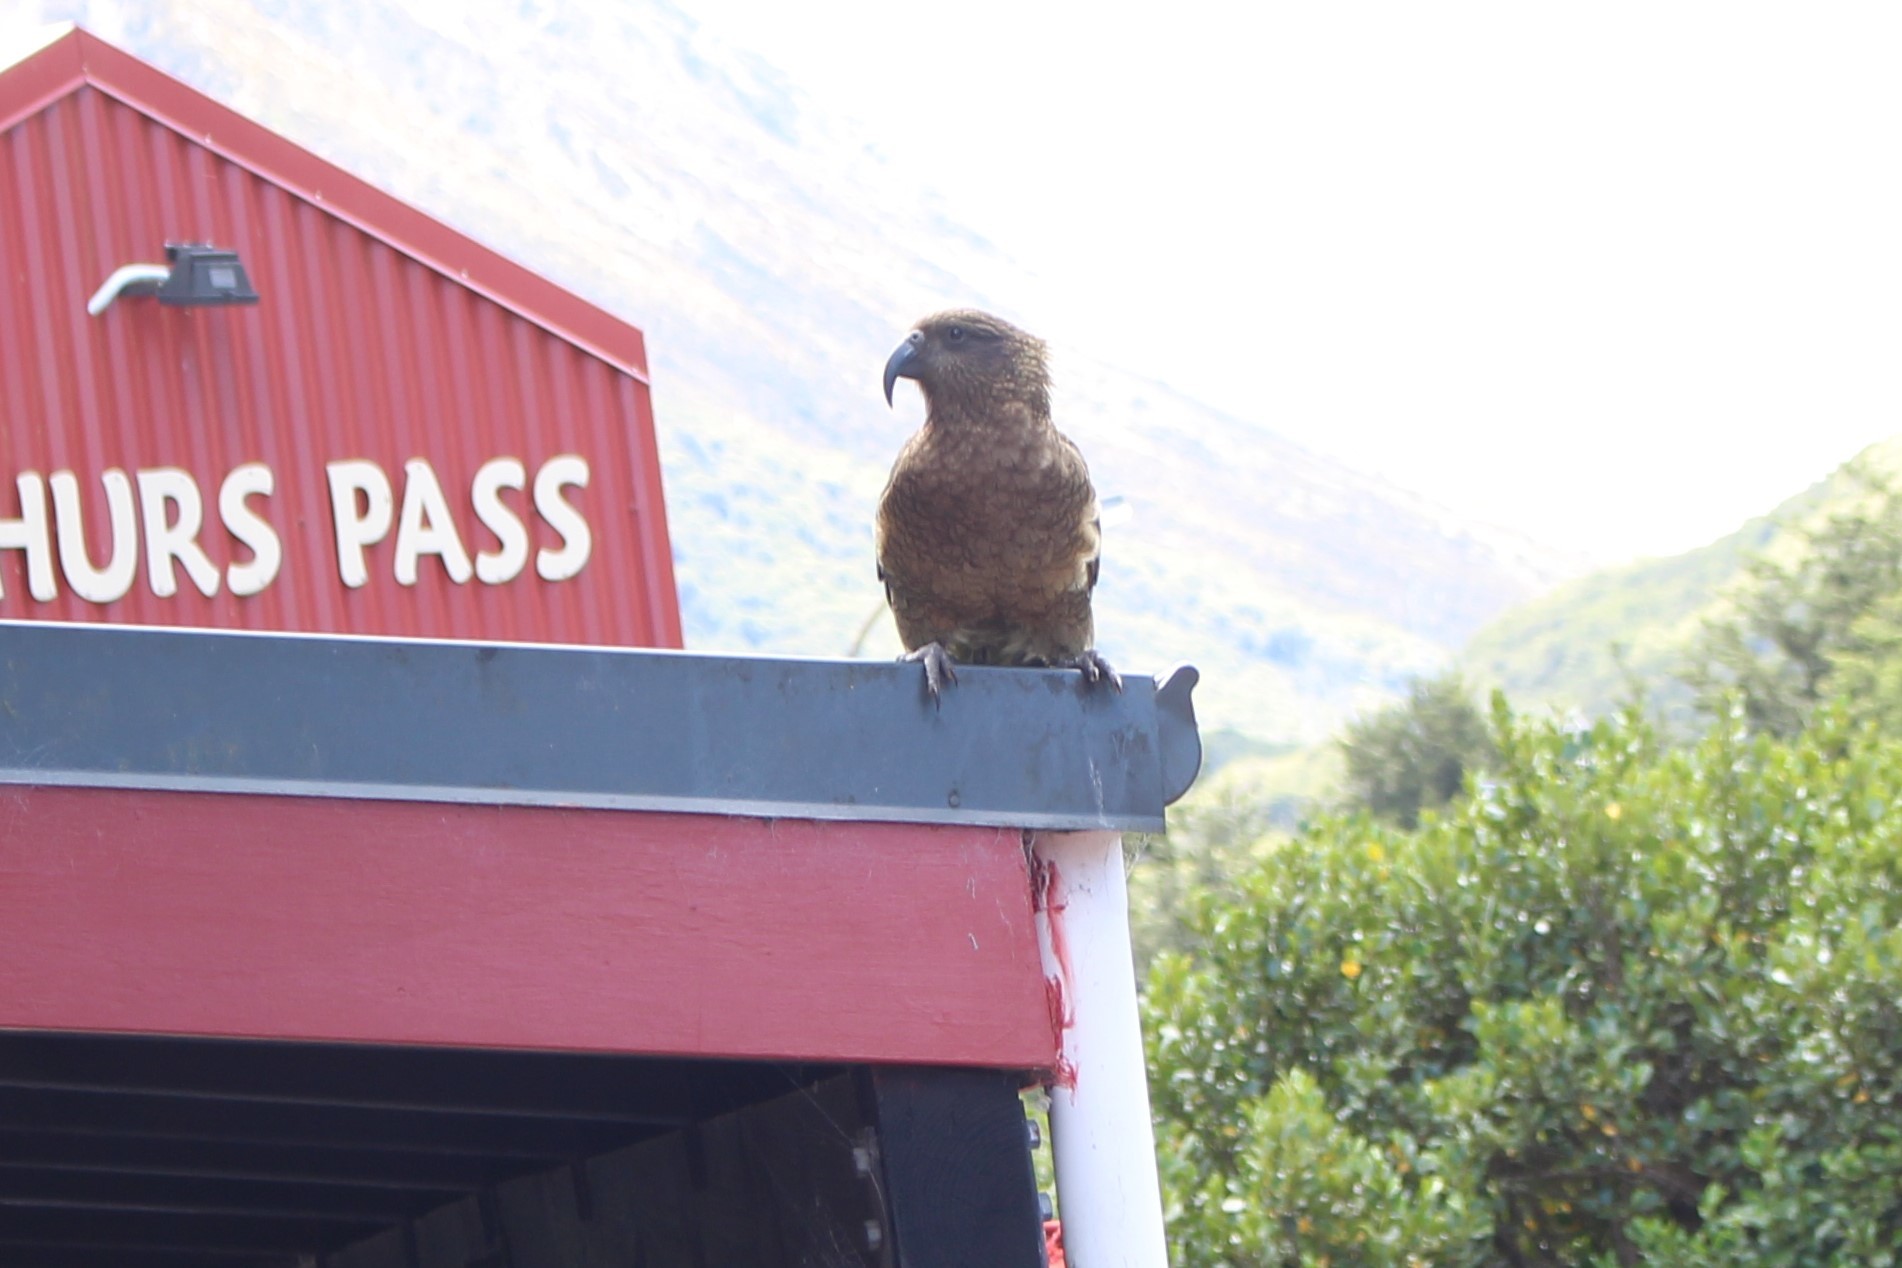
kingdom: Animalia
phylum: Chordata
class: Aves
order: Psittaciformes
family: Psittacidae
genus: Nestor
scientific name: Nestor notabilis
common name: Kea
